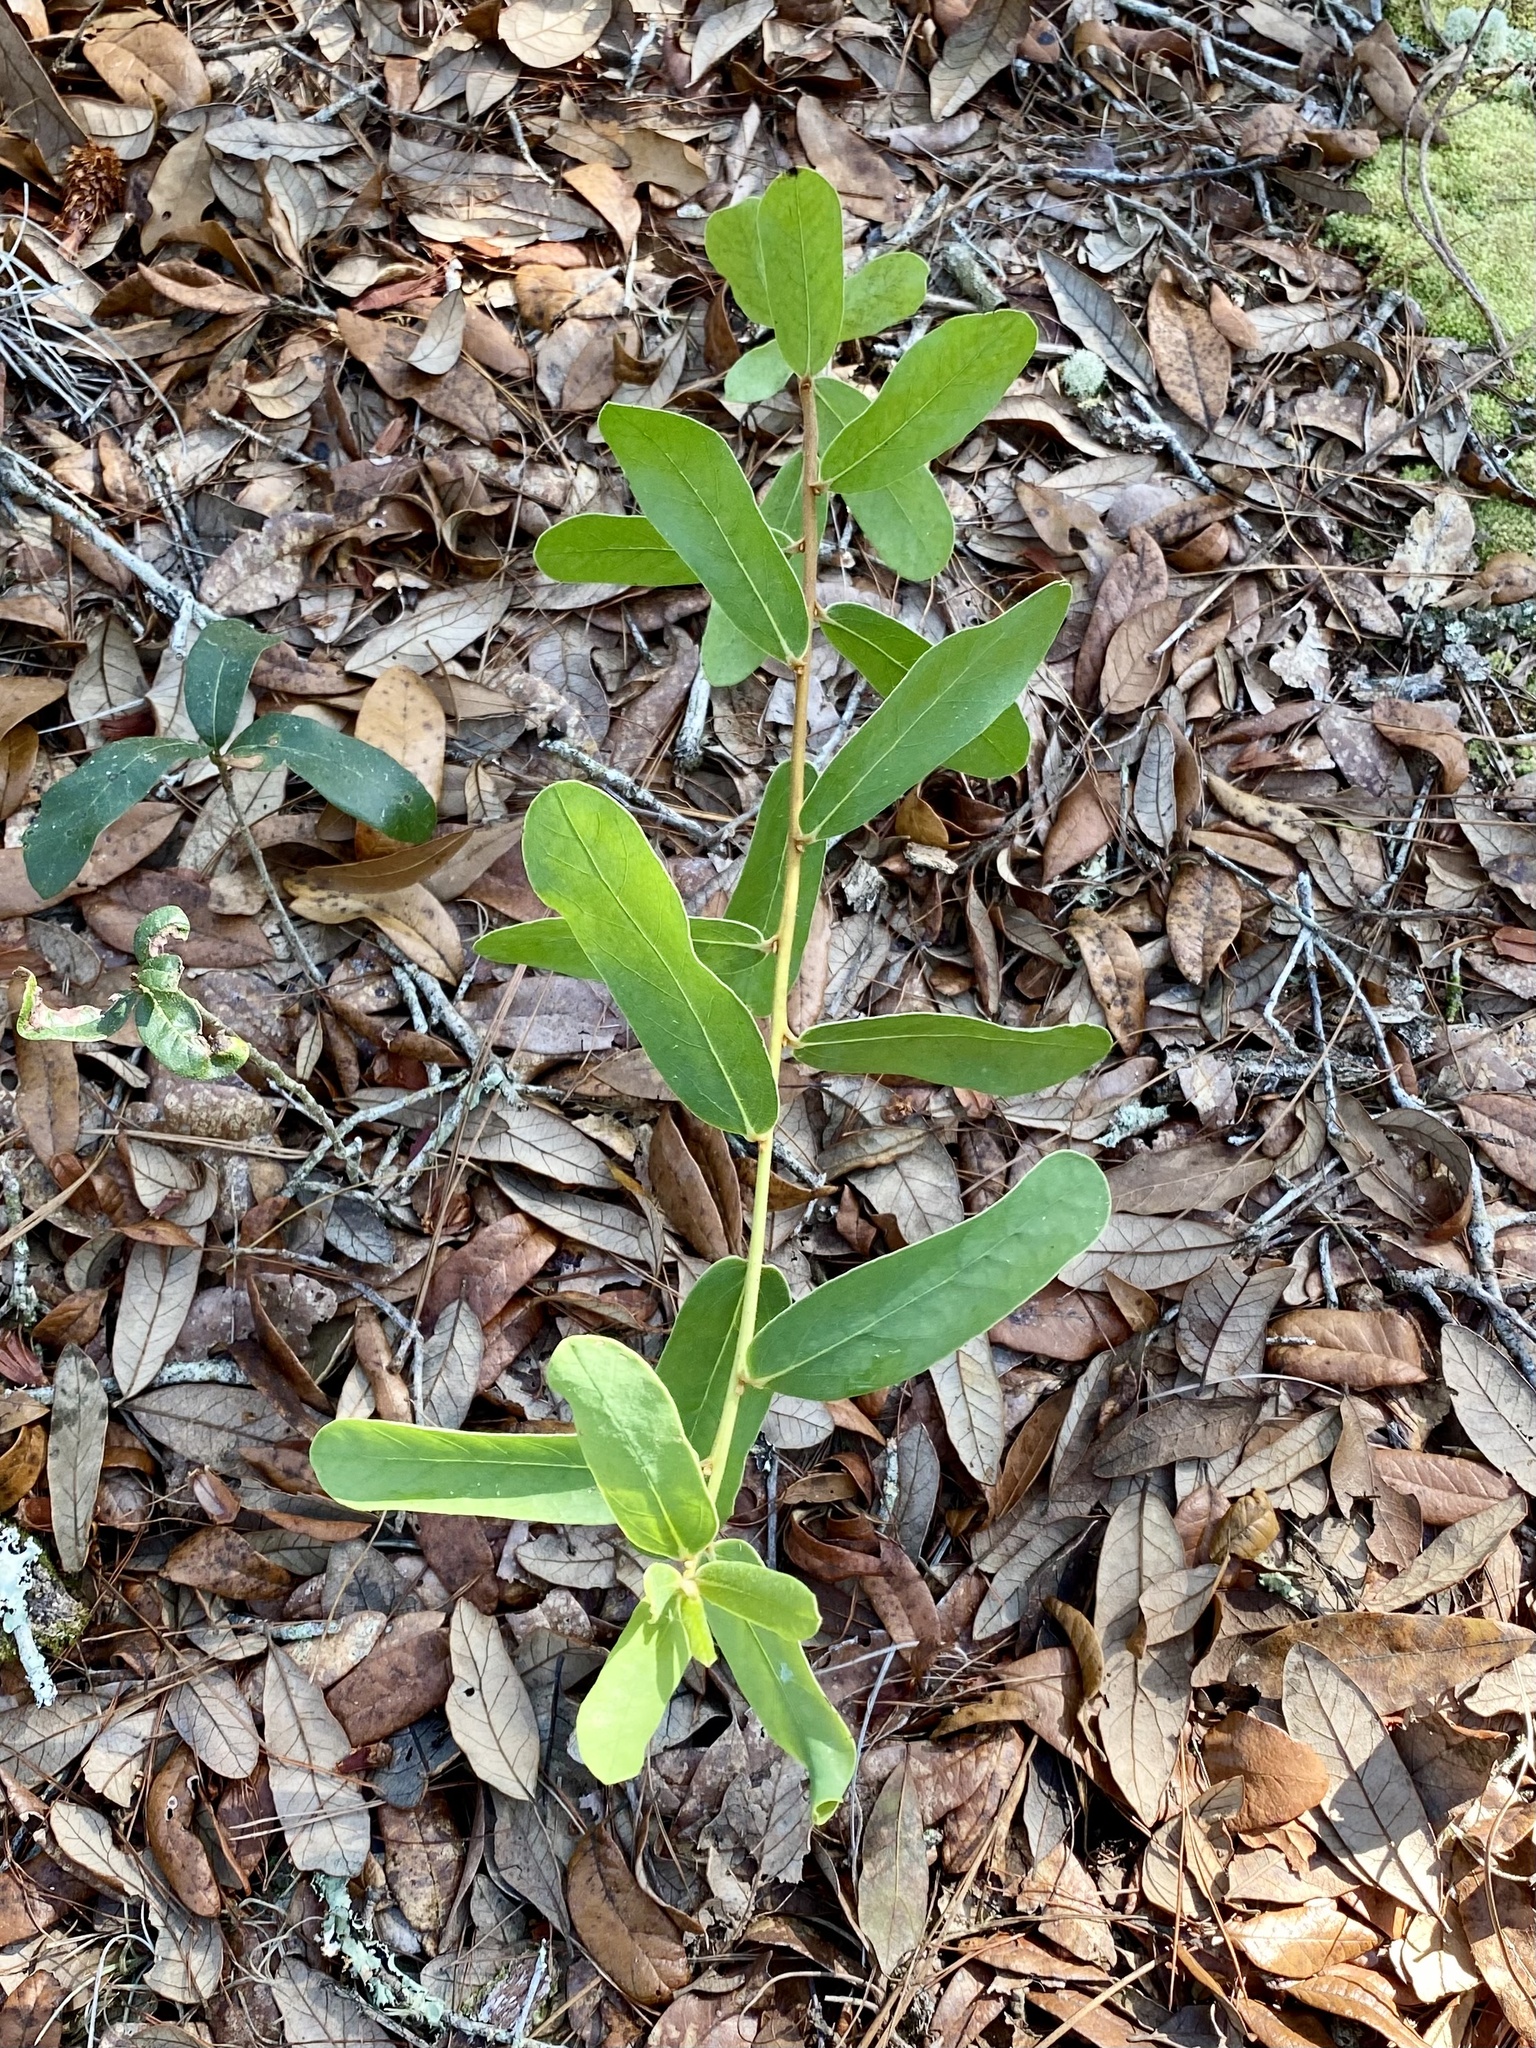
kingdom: Plantae
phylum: Tracheophyta
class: Magnoliopsida
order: Magnoliales
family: Annonaceae
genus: Asimina
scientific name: Asimina reticulata
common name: Flag pawpaw
